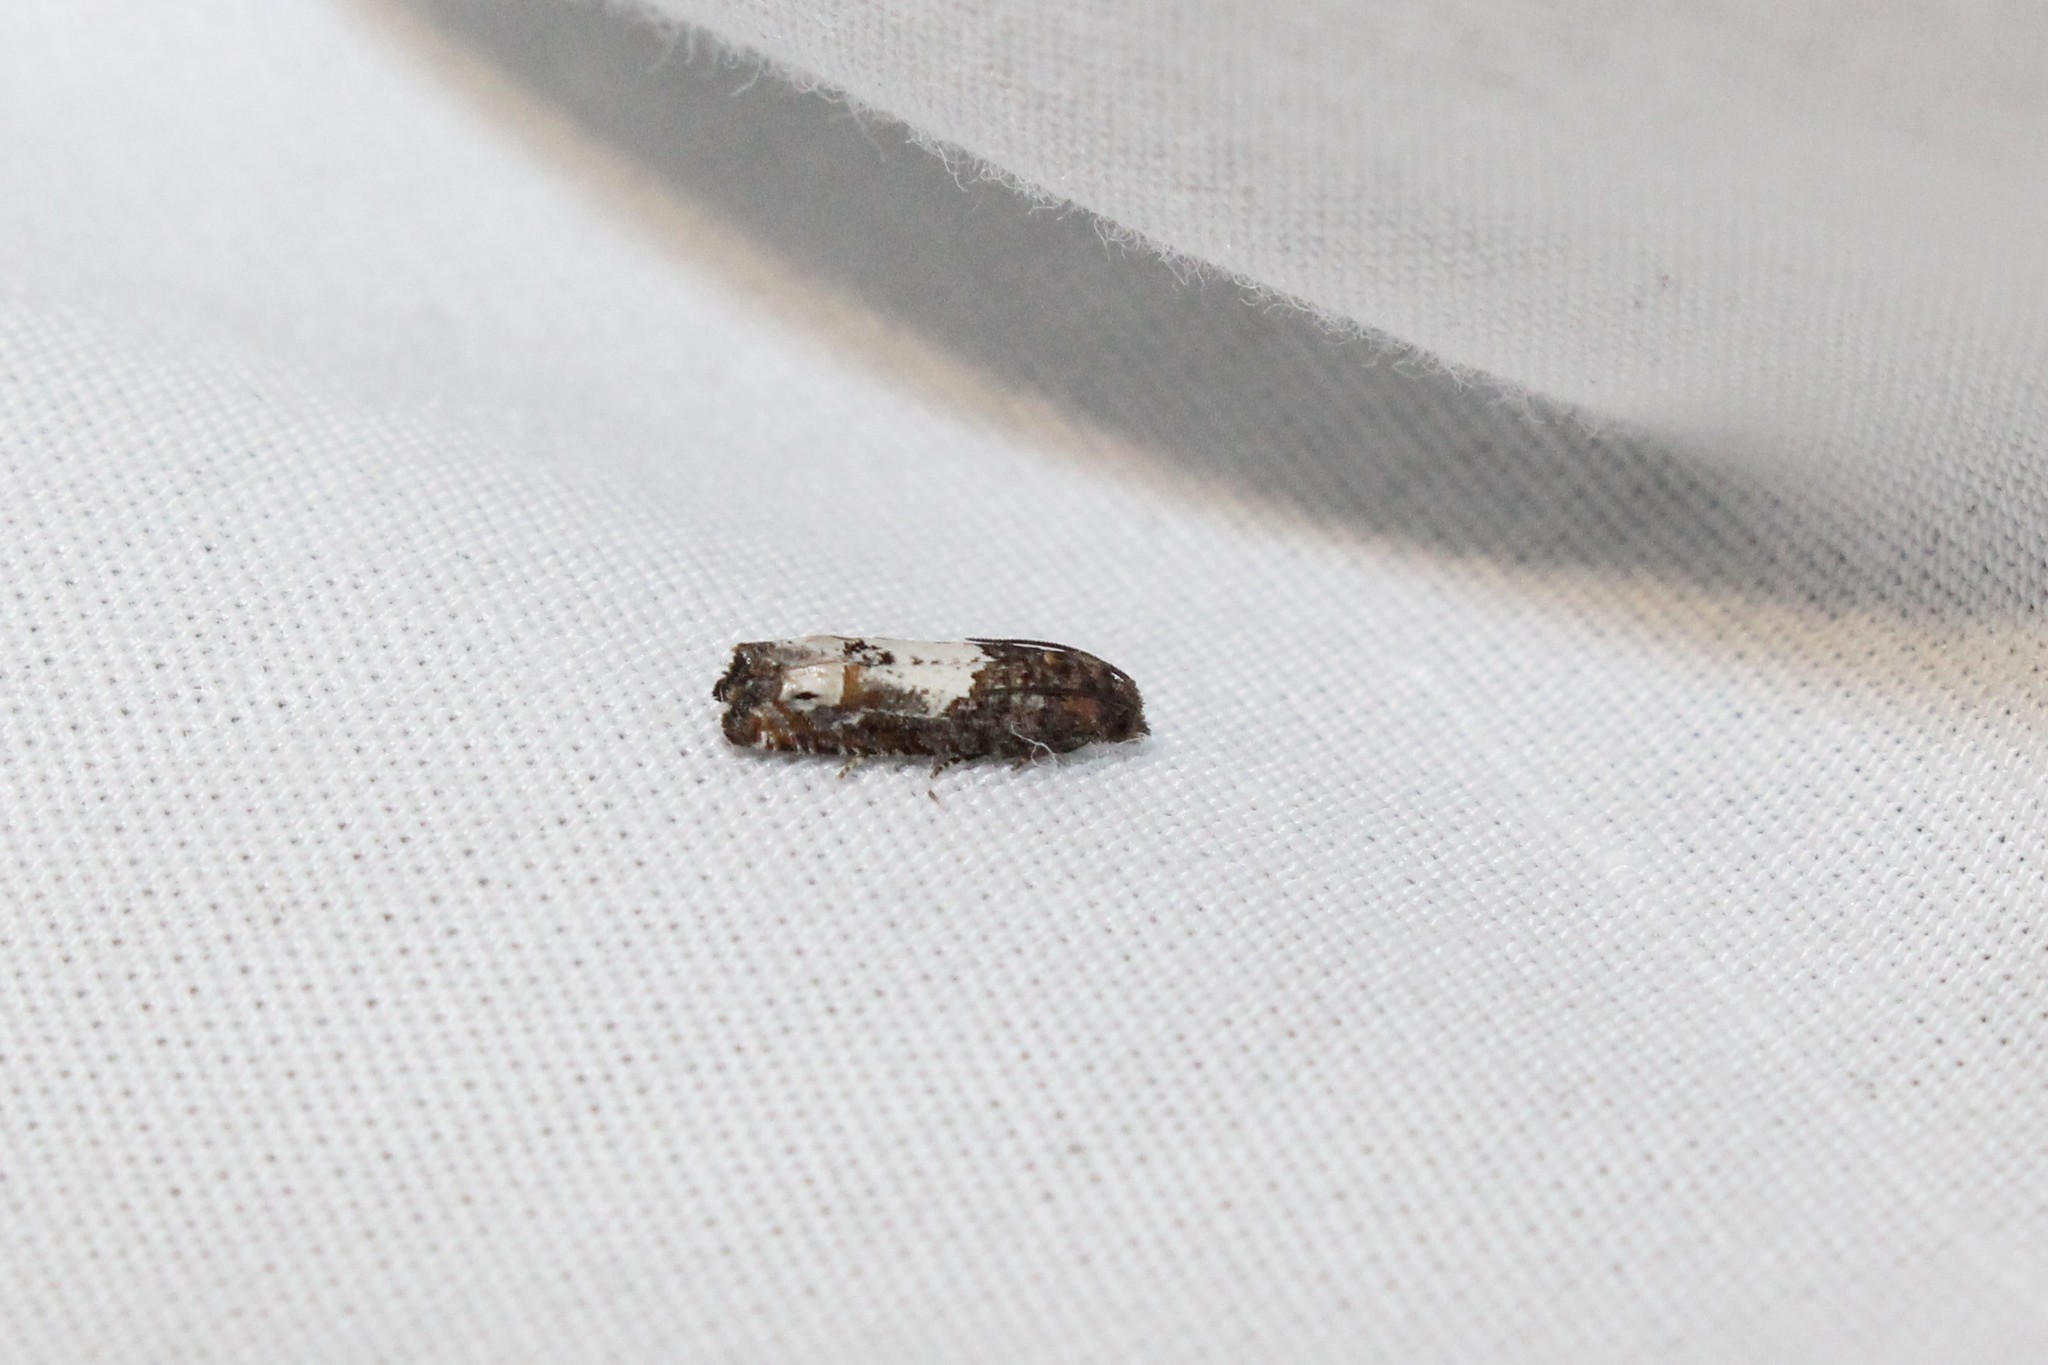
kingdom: Animalia
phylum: Arthropoda
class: Insecta
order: Lepidoptera
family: Tortricidae
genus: Eucosma
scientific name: Eucosma parmatana
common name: Aster eucosma moth
